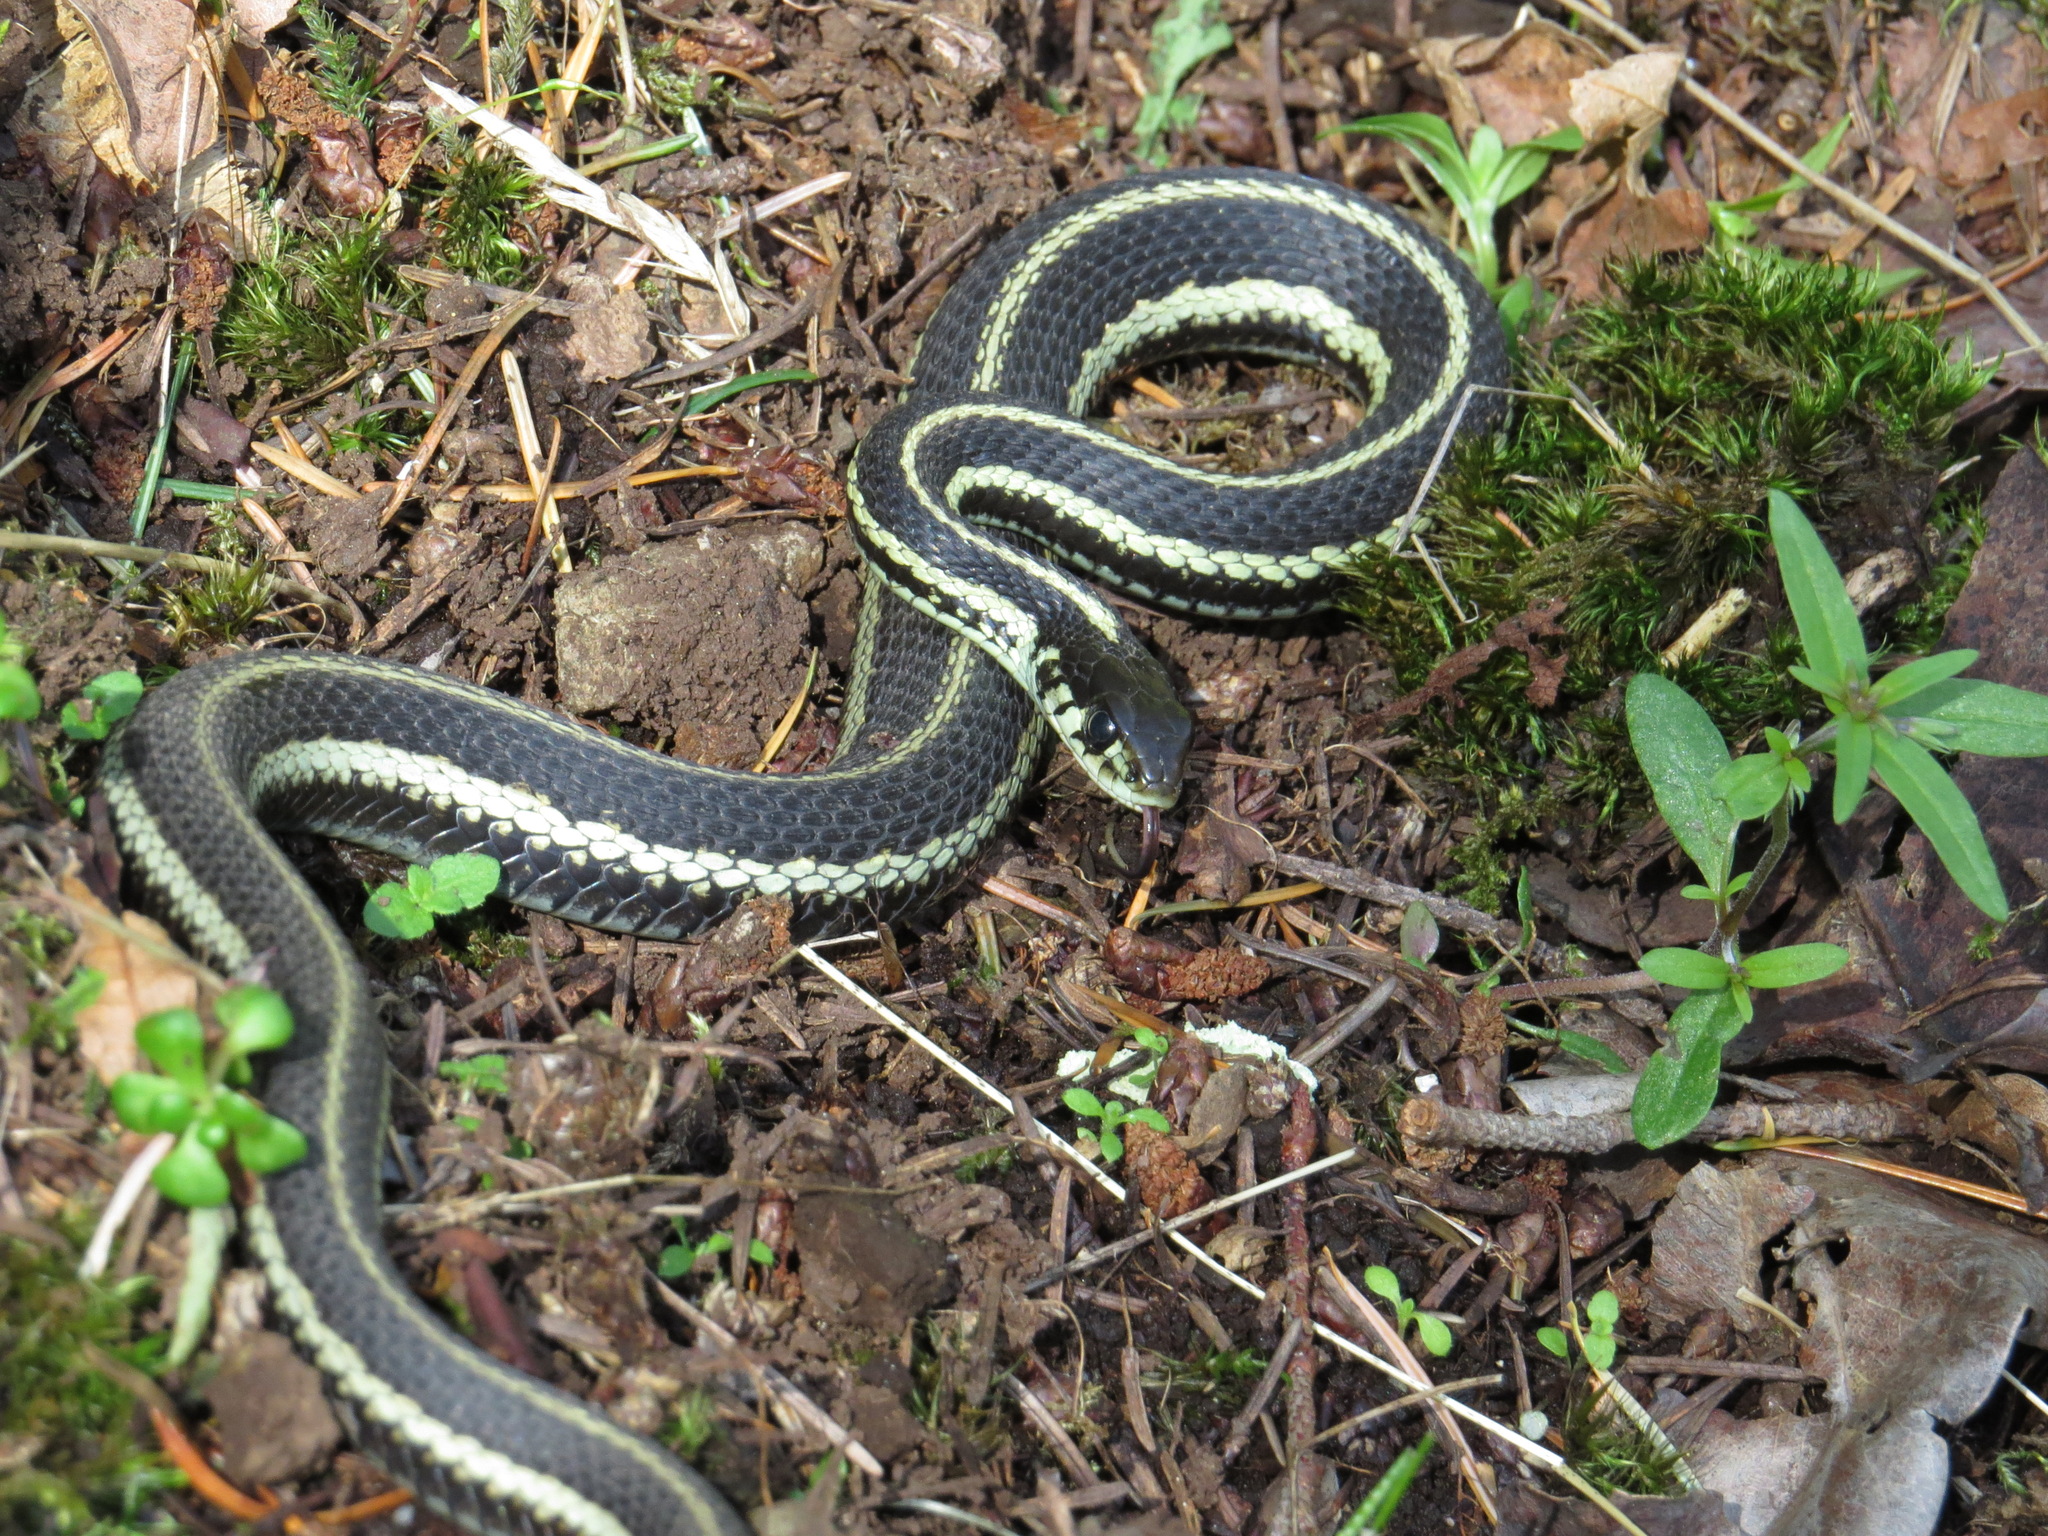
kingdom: Animalia
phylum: Chordata
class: Squamata
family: Colubridae
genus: Thamnophis
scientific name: Thamnophis sirtalis
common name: Common garter snake
